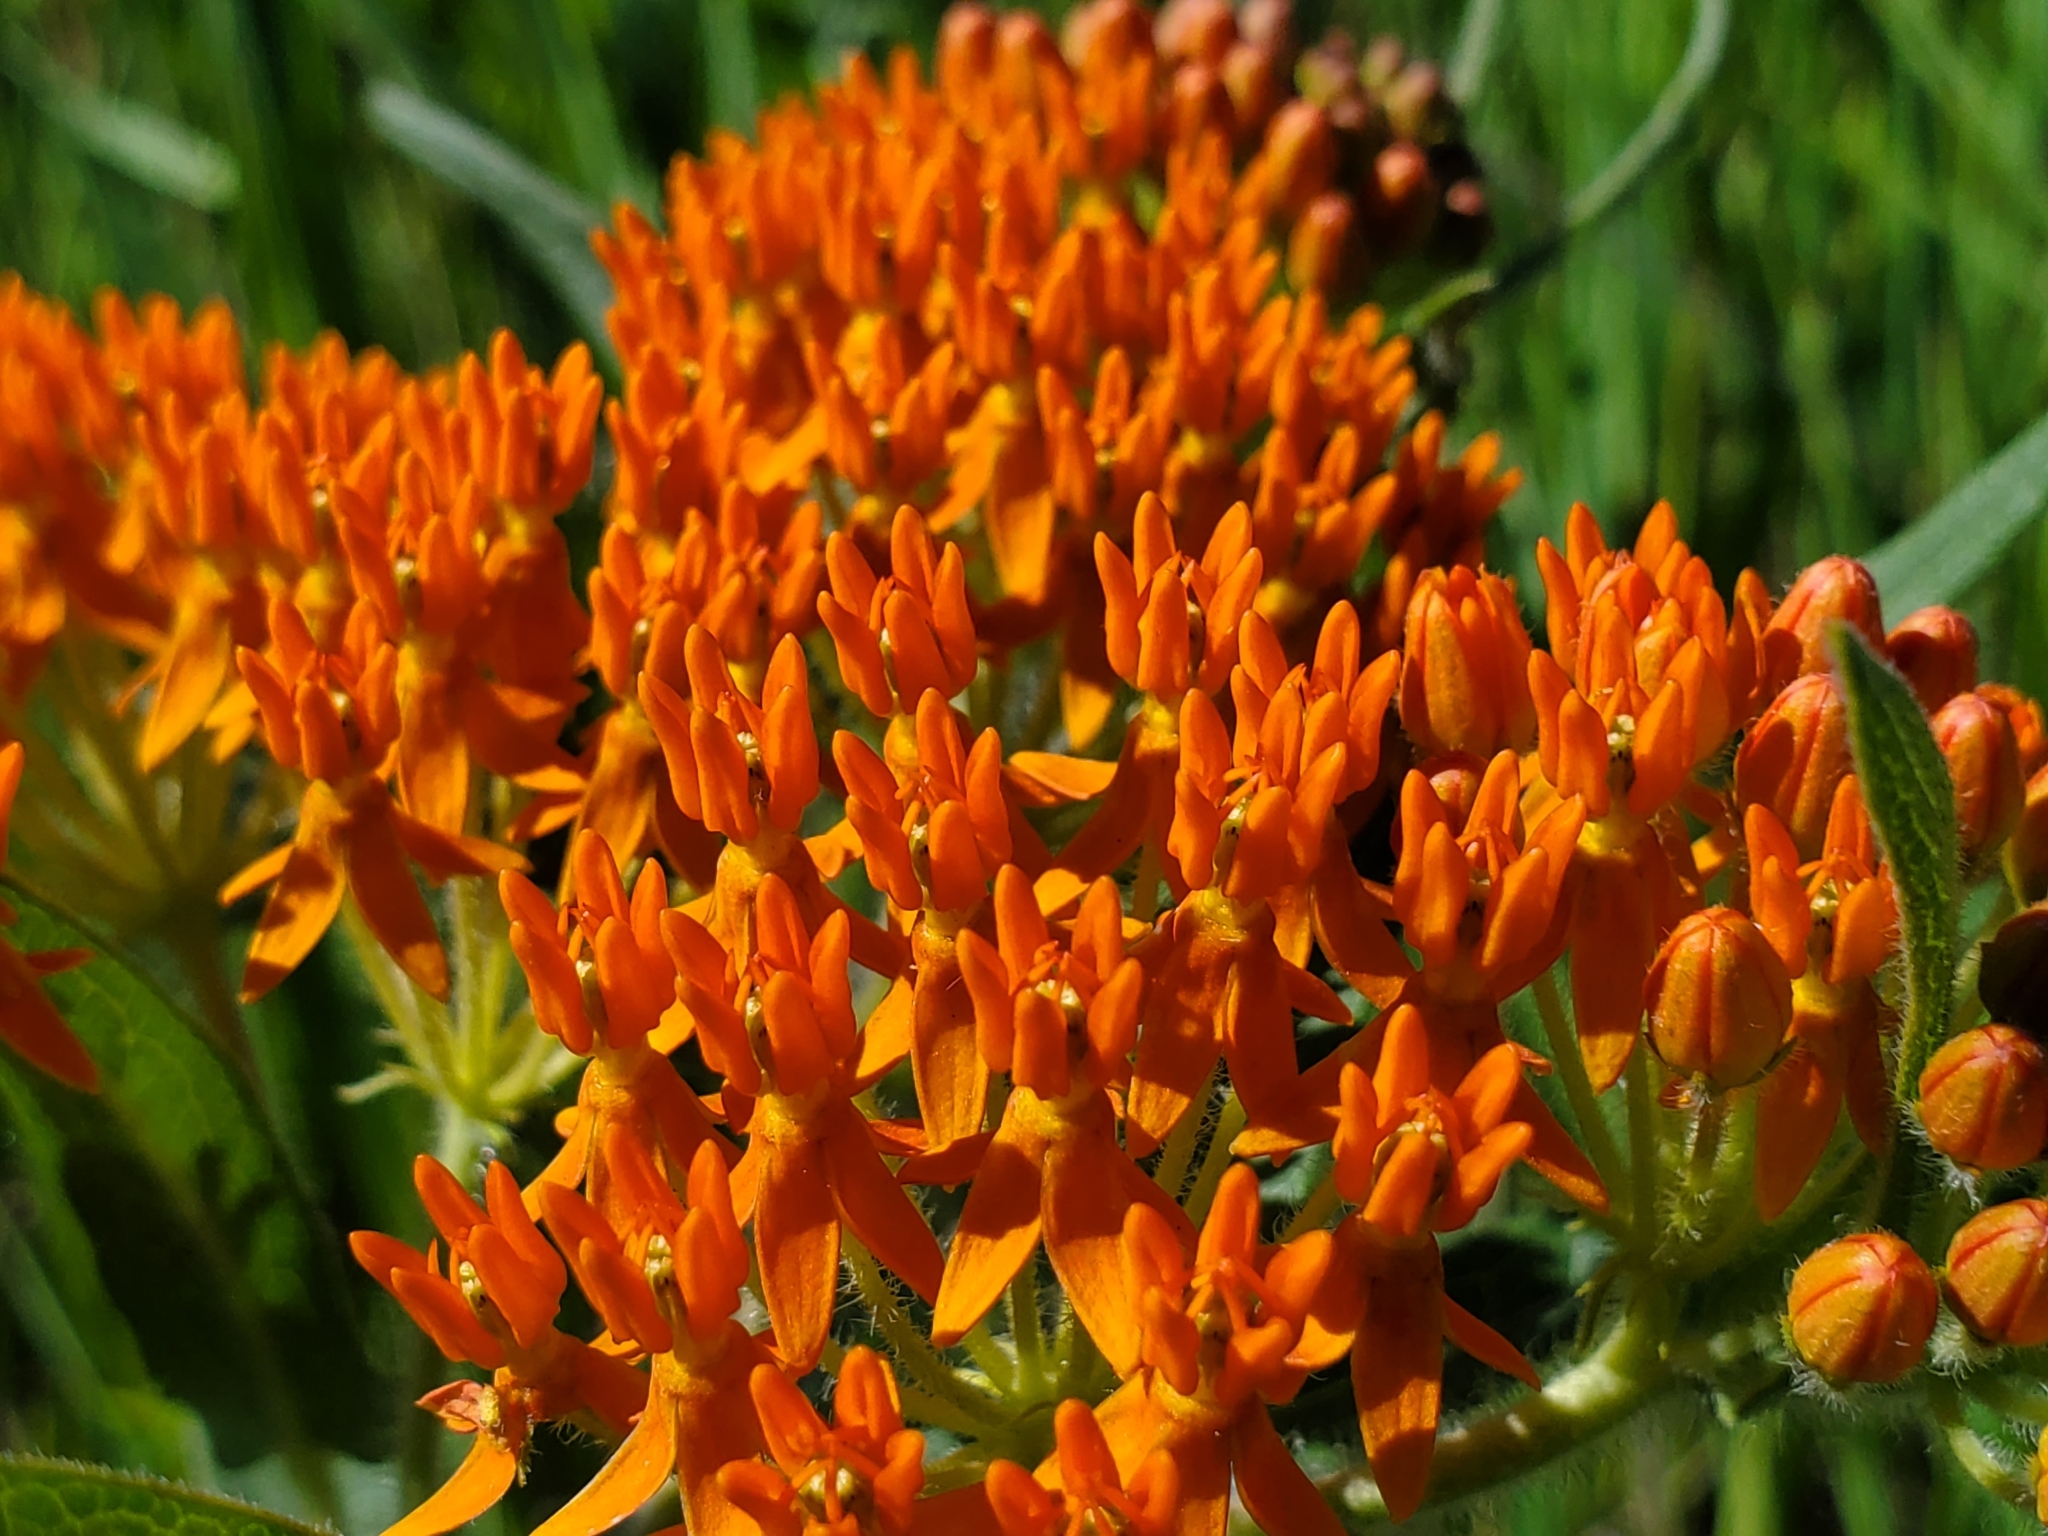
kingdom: Plantae
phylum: Tracheophyta
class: Magnoliopsida
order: Gentianales
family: Apocynaceae
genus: Asclepias
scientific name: Asclepias tuberosa
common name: Butterfly milkweed
